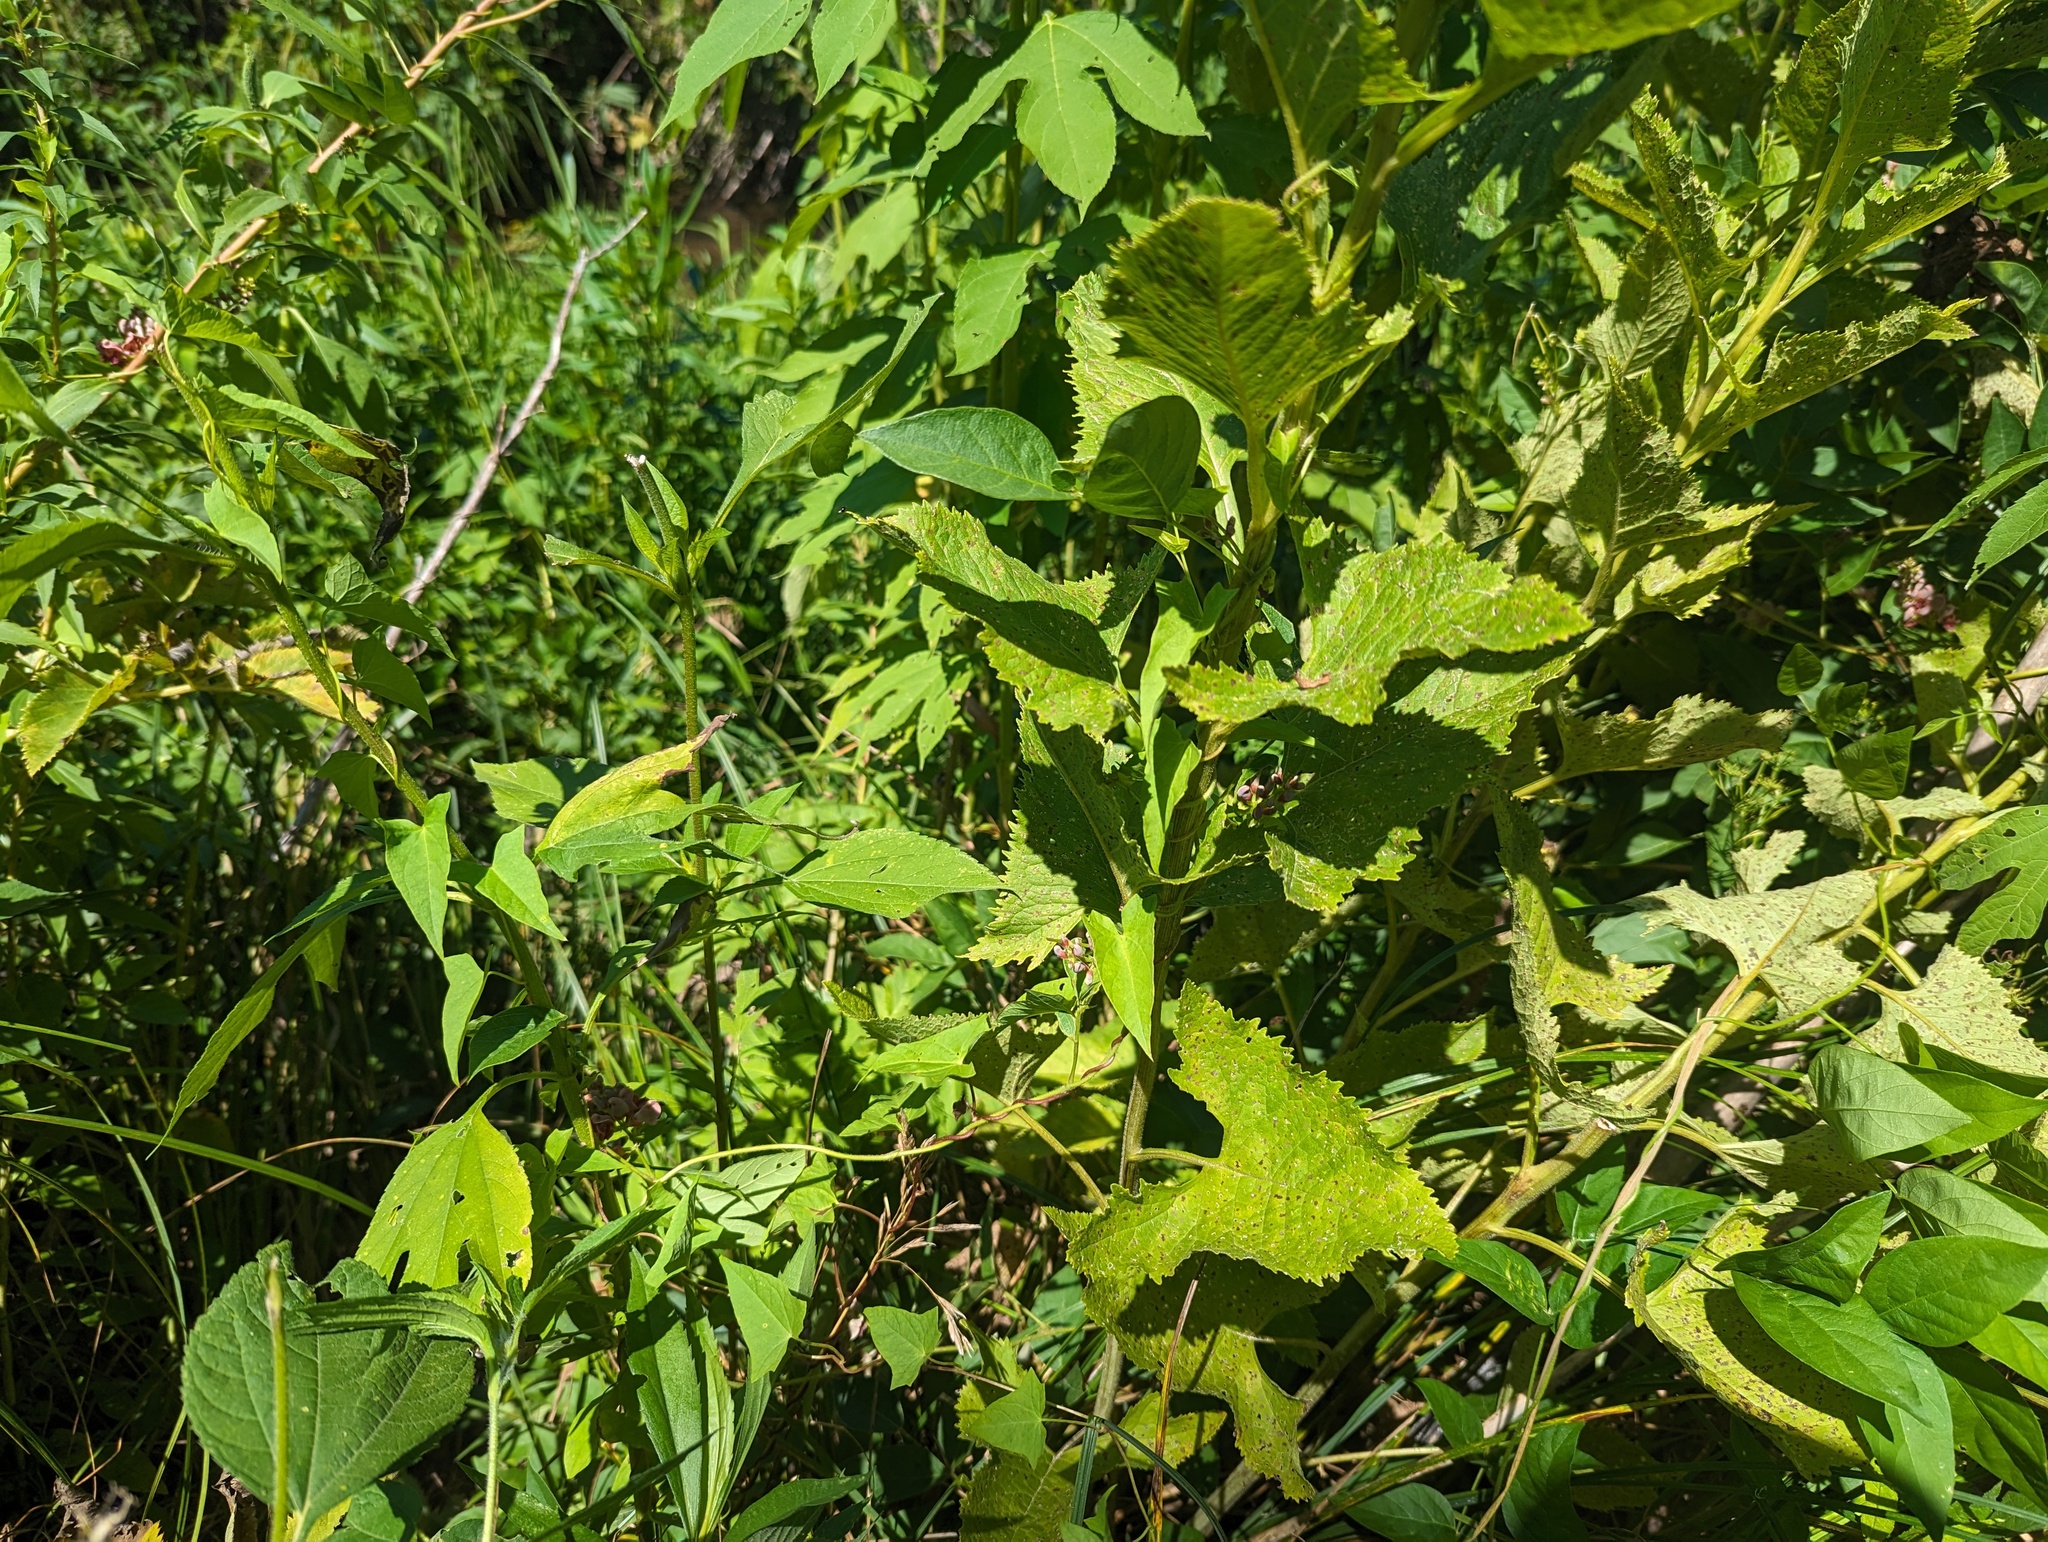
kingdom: Plantae
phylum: Tracheophyta
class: Magnoliopsida
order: Asterales
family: Asteraceae
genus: Hasteola
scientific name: Hasteola suaveolens
